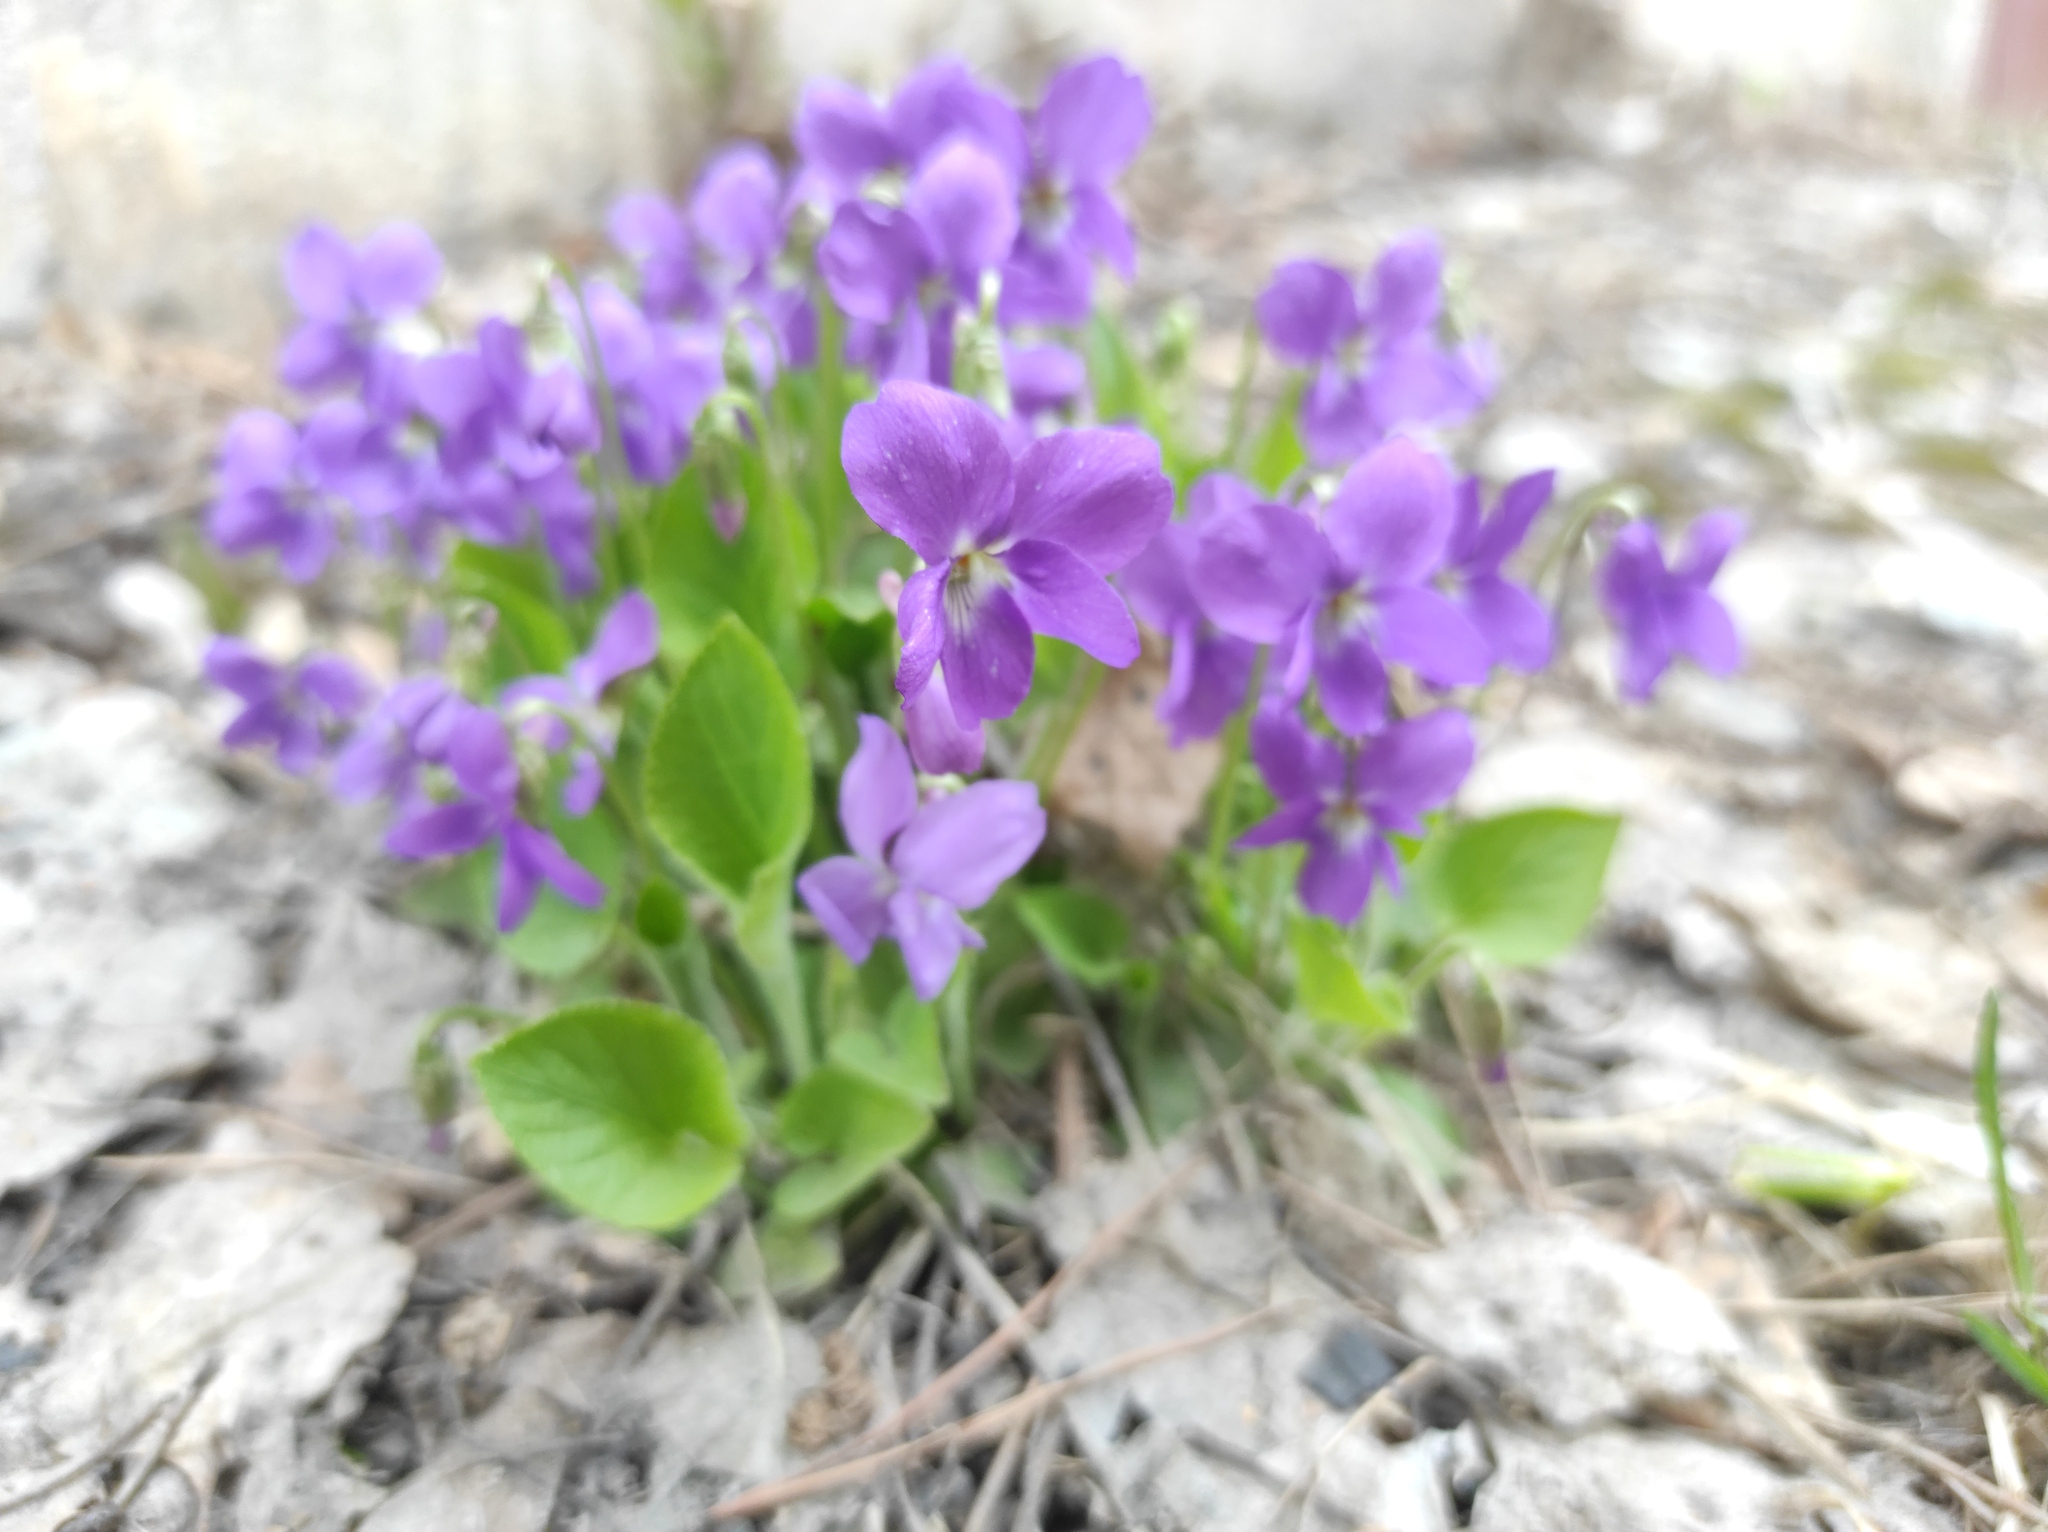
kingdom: Plantae
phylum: Tracheophyta
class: Magnoliopsida
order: Malpighiales
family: Violaceae
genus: Viola
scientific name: Viola hirta
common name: Hairy violet
